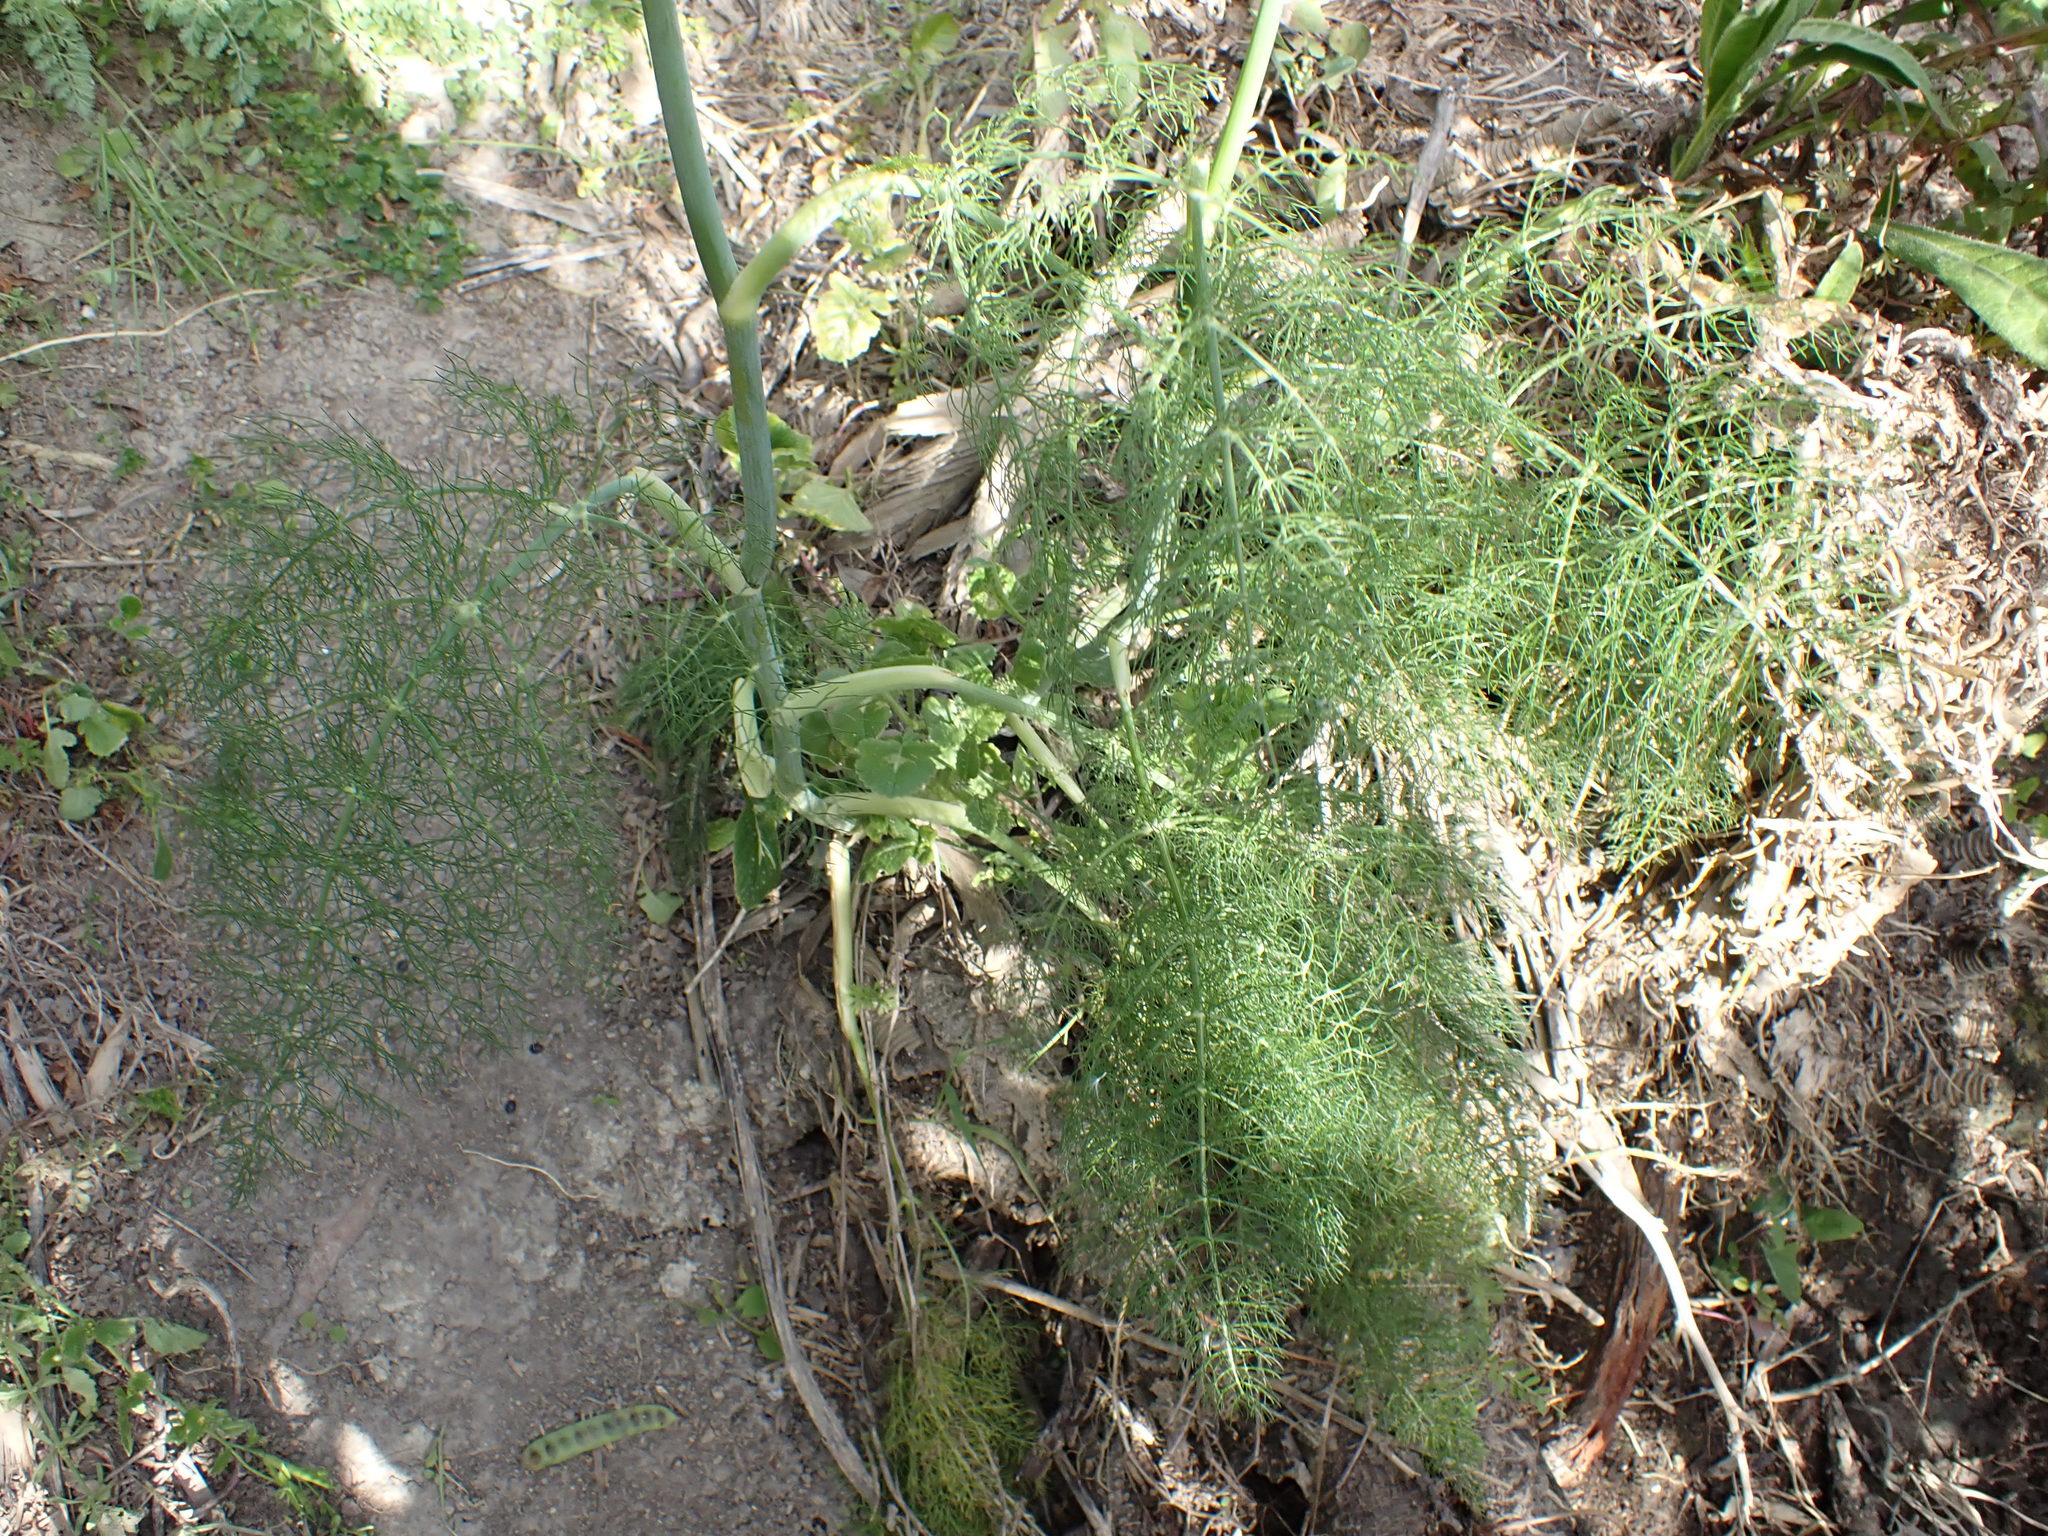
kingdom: Plantae
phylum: Tracheophyta
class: Magnoliopsida
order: Apiales
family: Apiaceae
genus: Foeniculum
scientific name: Foeniculum vulgare
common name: Fennel
